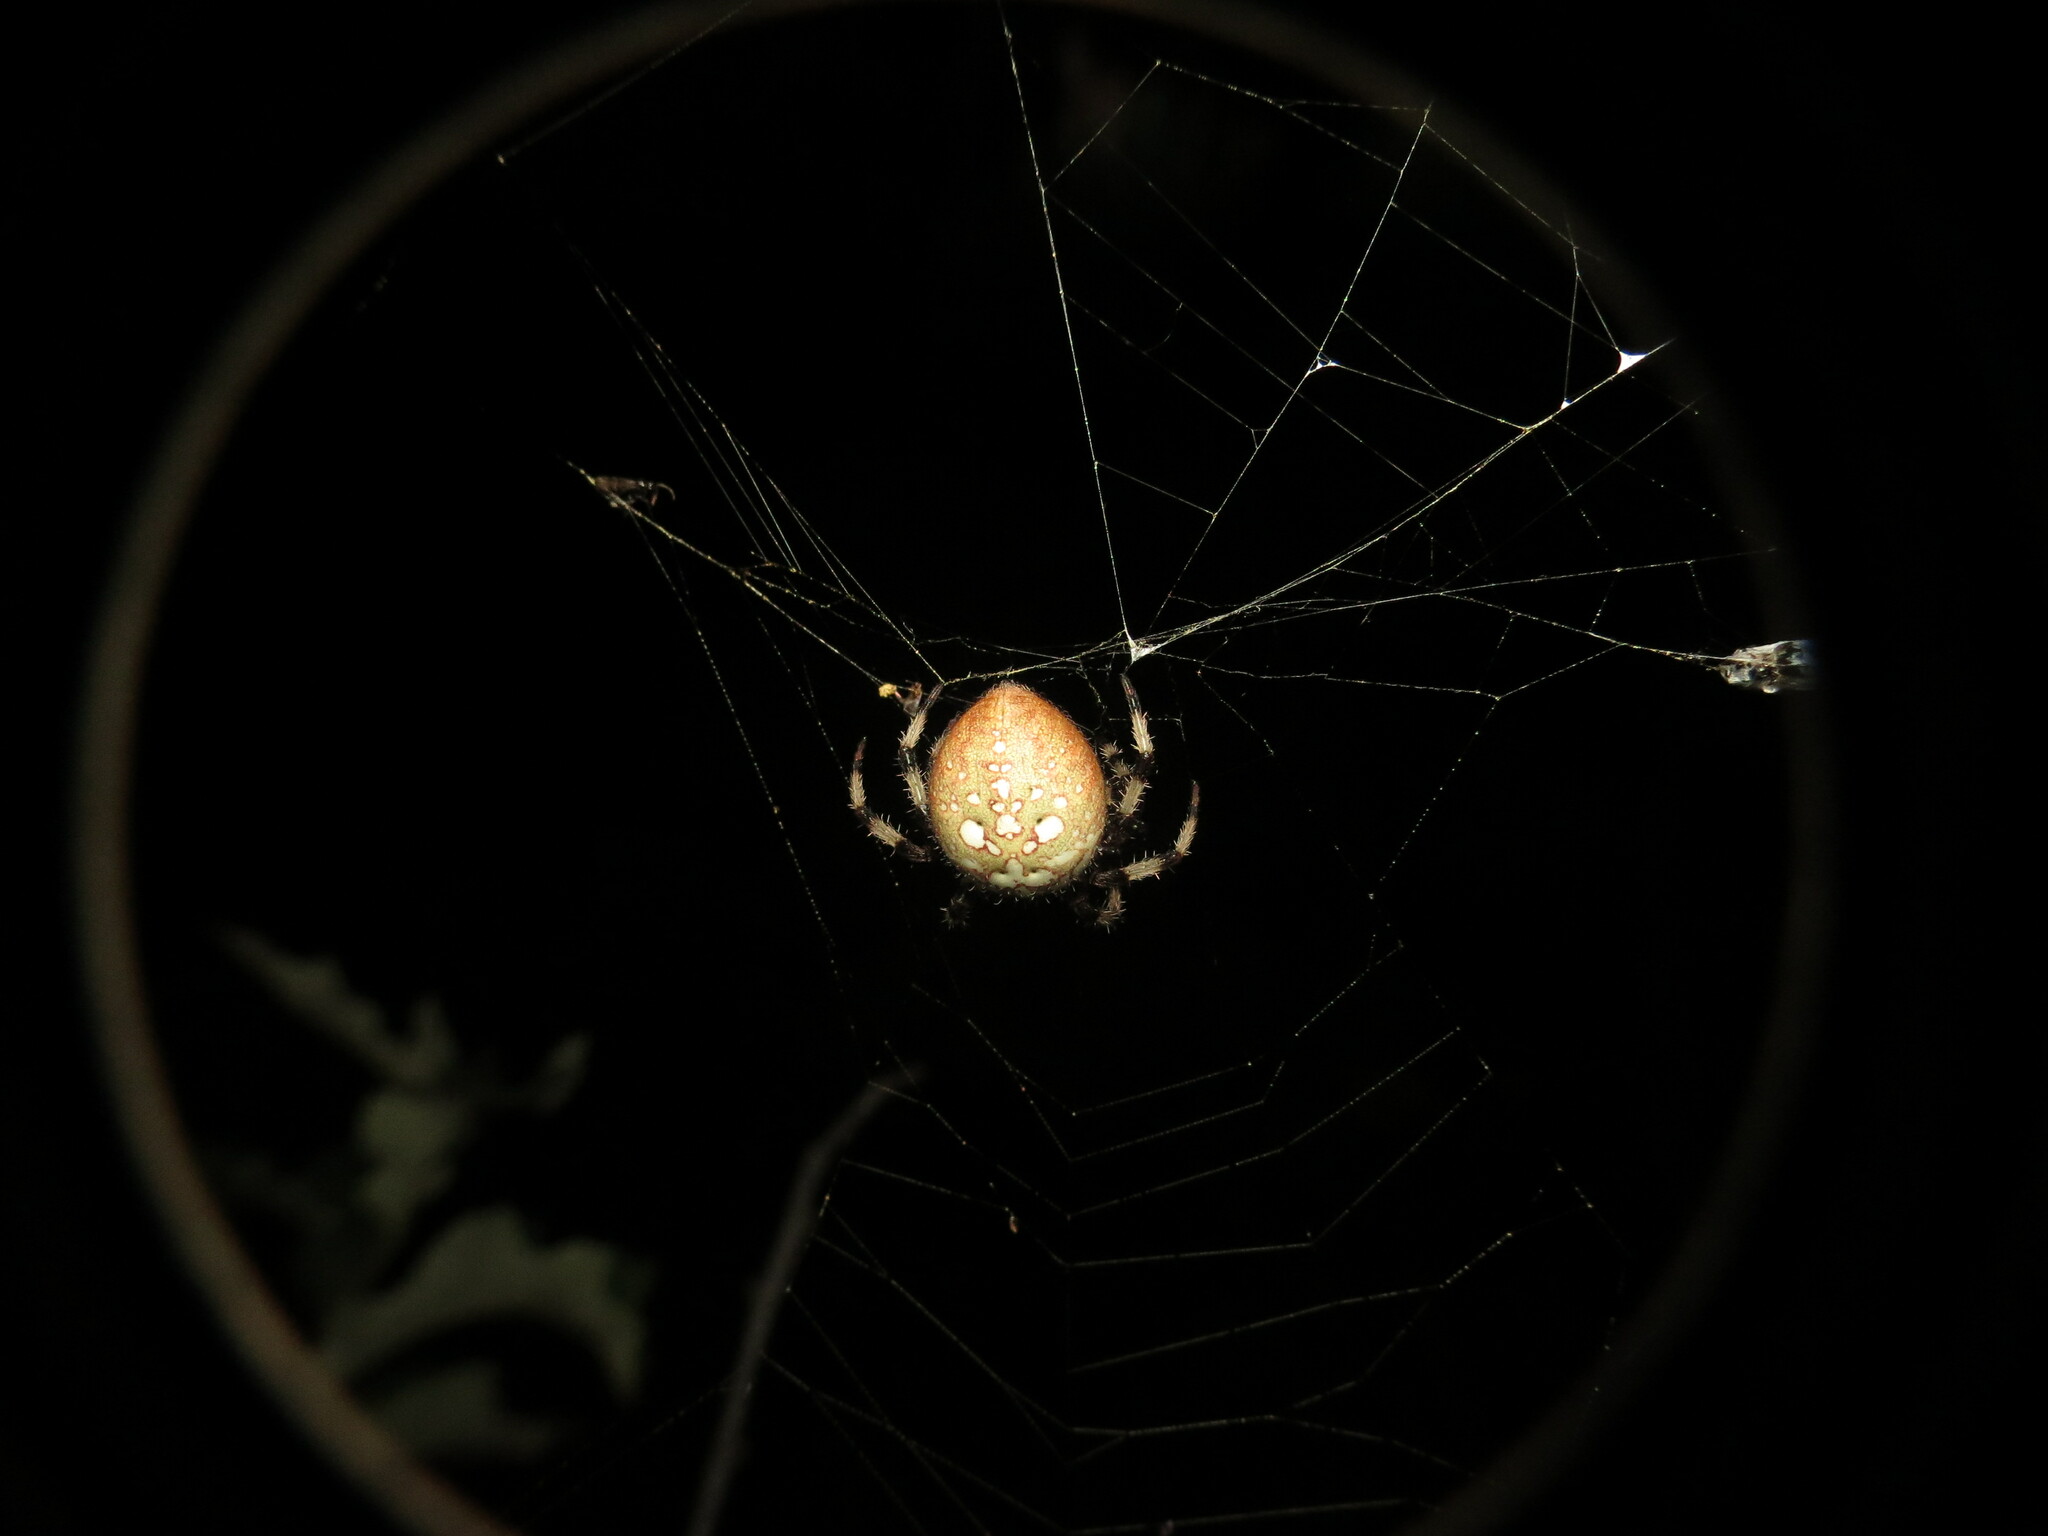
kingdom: Animalia
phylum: Arthropoda
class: Arachnida
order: Araneae
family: Araneidae
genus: Araneus
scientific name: Araneus trifolium
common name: Shamrock orbweaver
